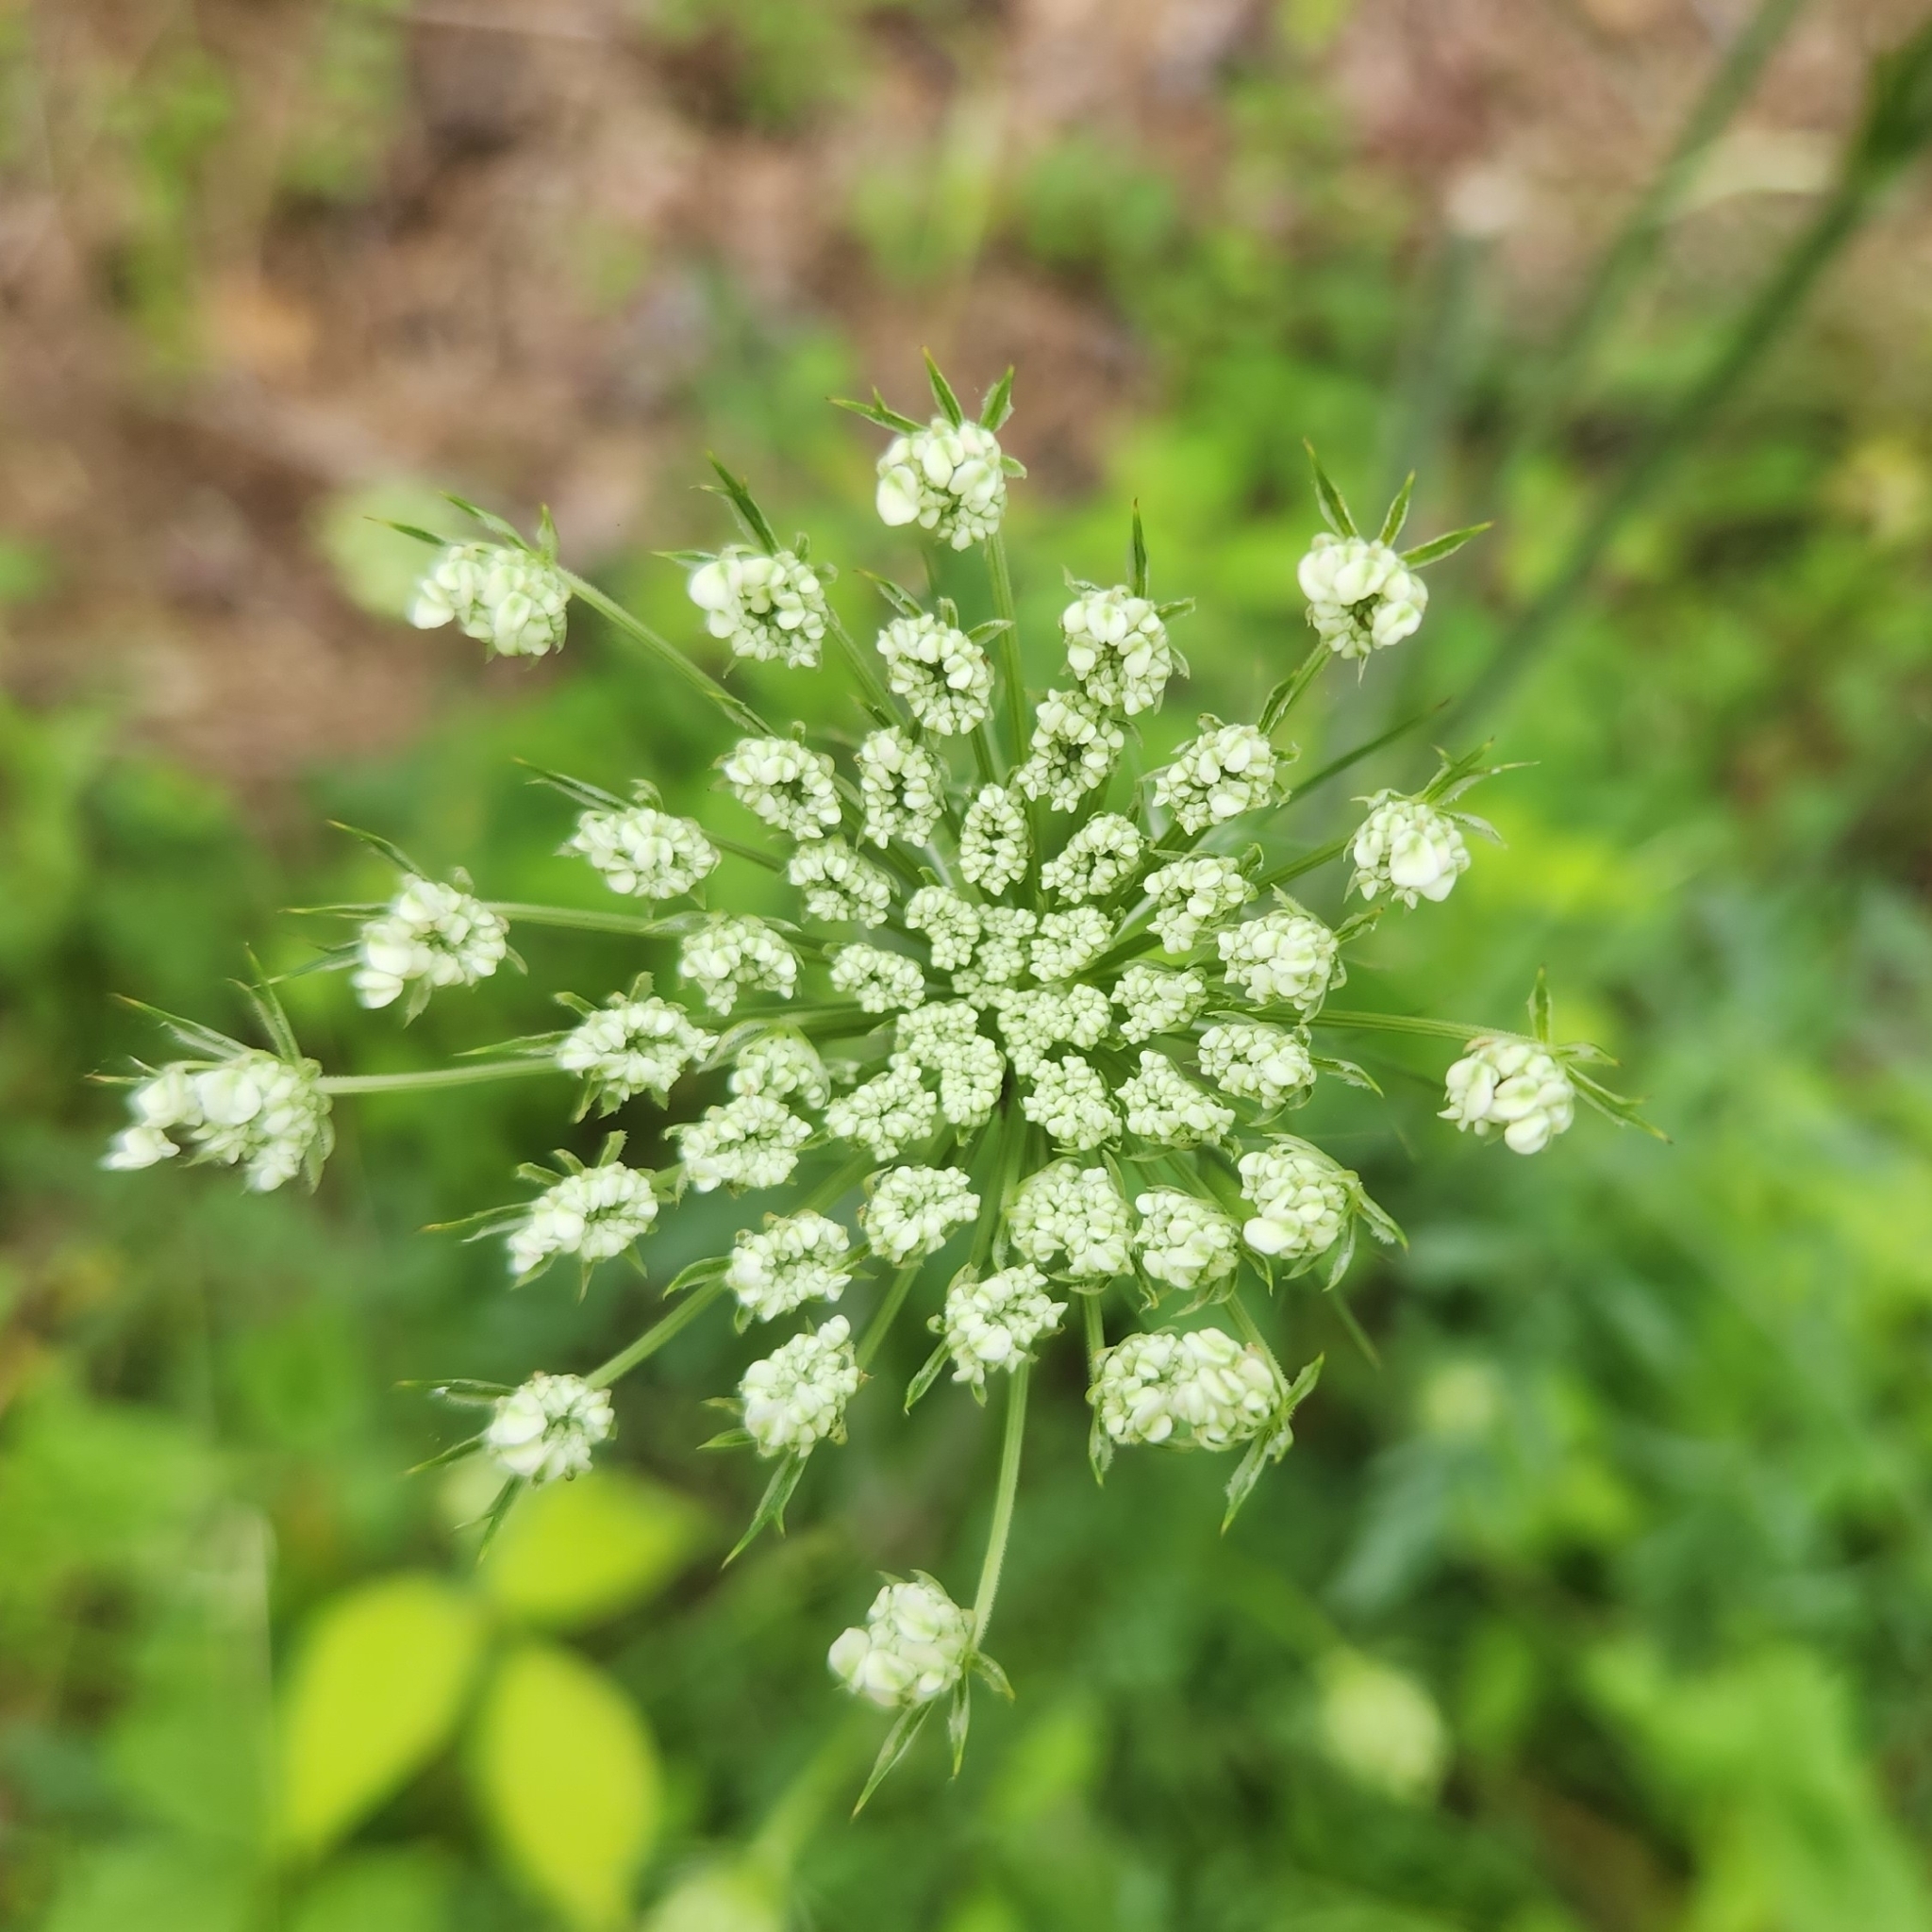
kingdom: Plantae
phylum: Tracheophyta
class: Magnoliopsida
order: Apiales
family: Apiaceae
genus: Daucus
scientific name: Daucus carota
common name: Wild carrot
